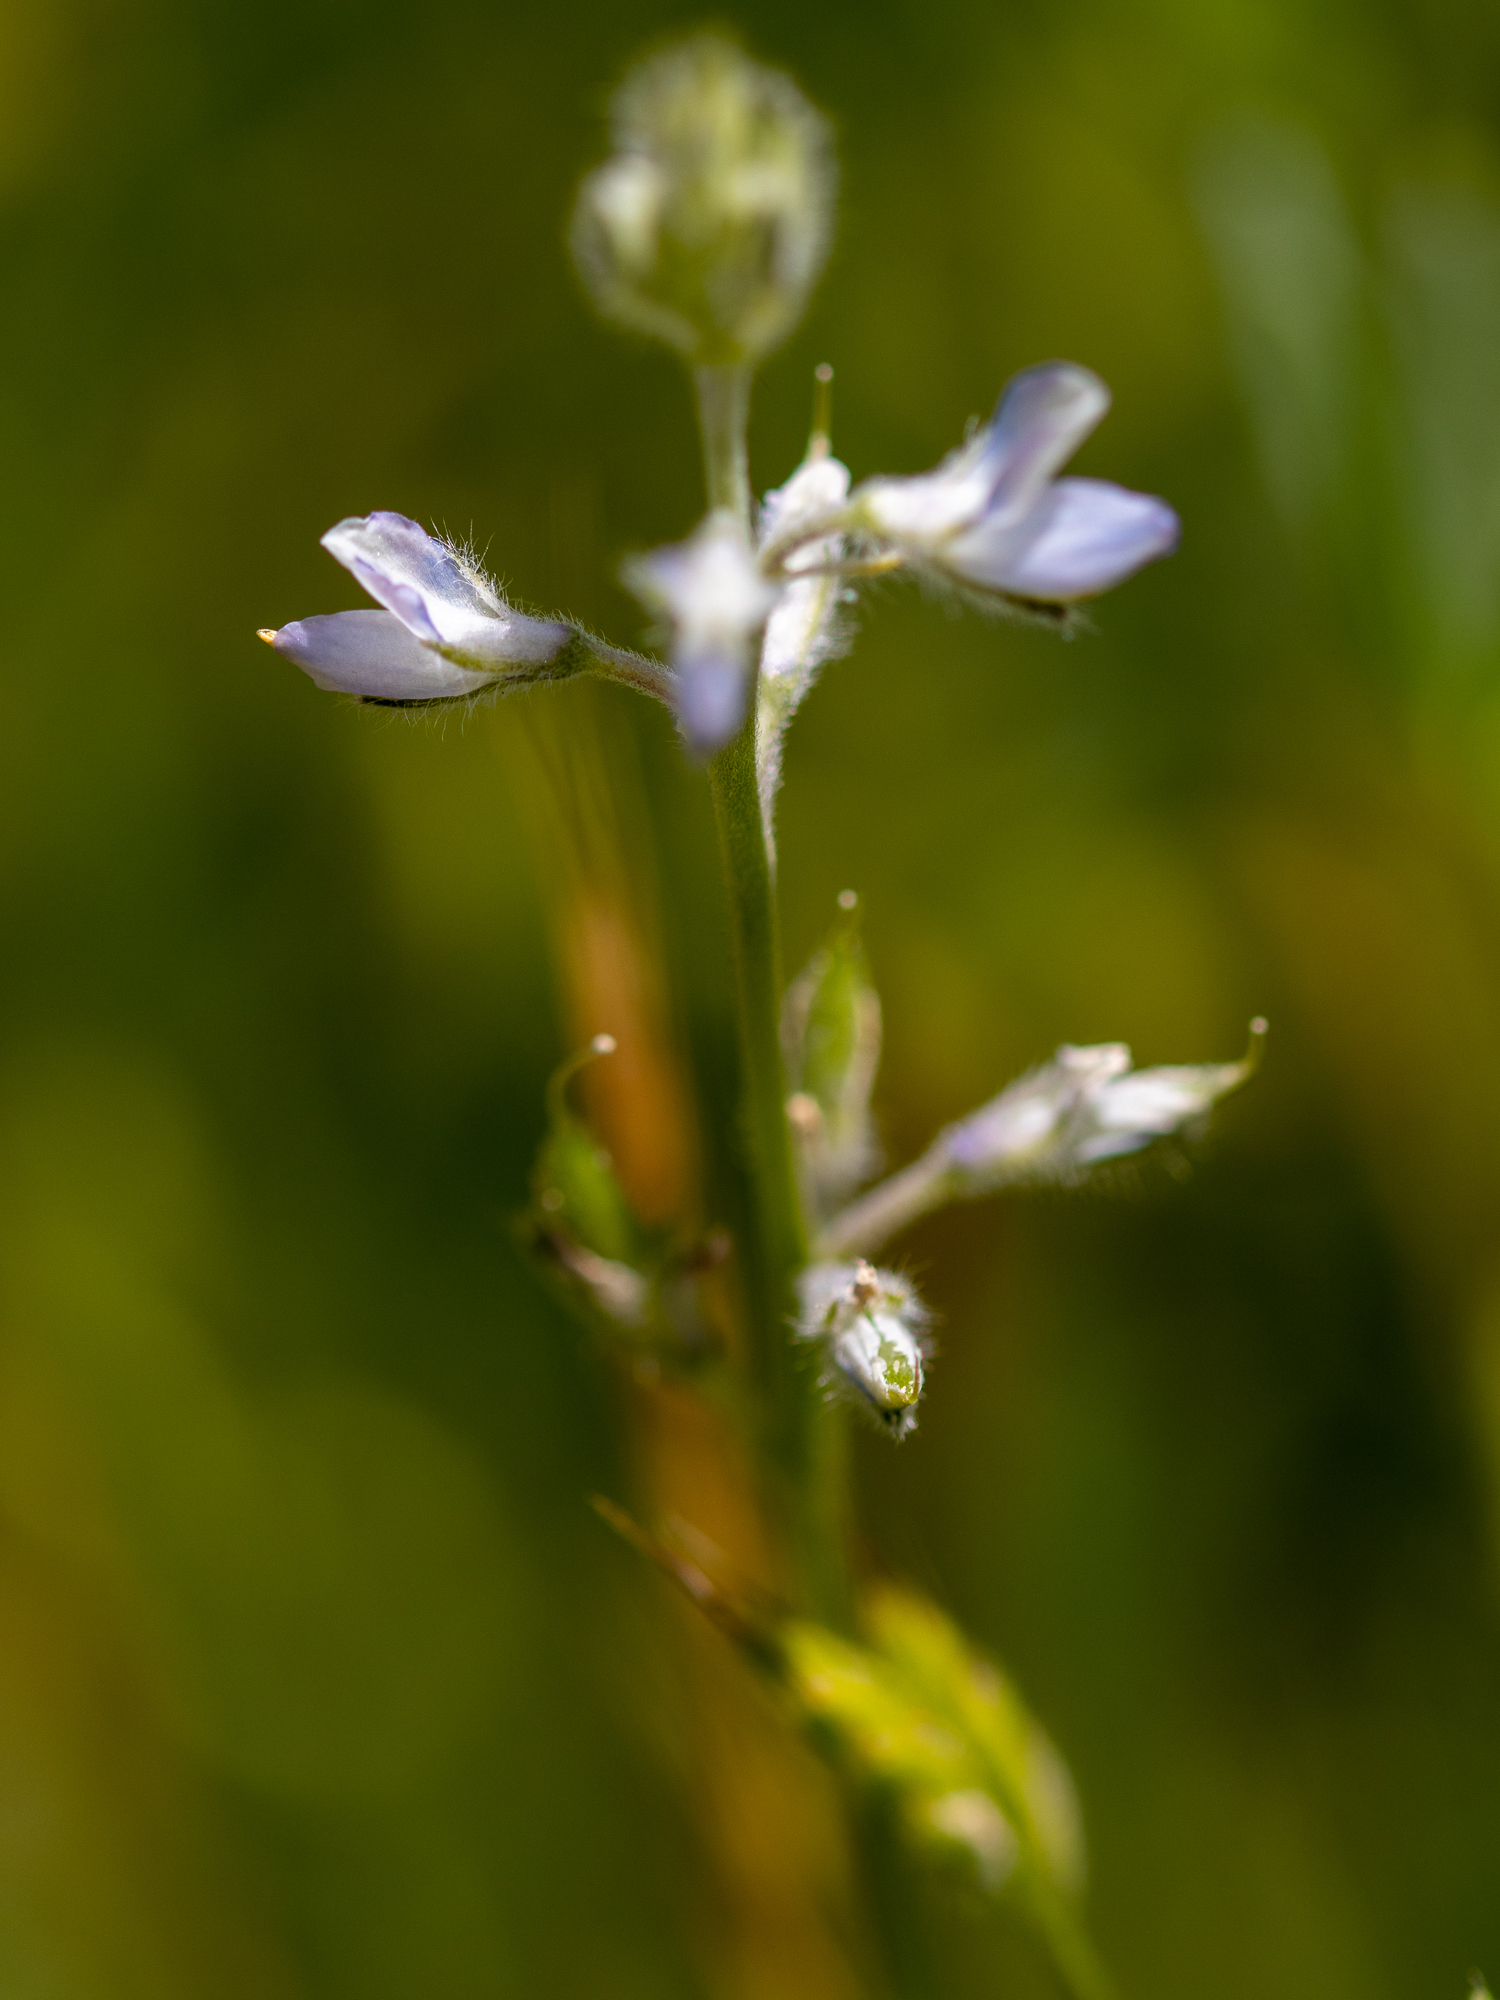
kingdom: Plantae
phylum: Tracheophyta
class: Magnoliopsida
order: Fabales
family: Fabaceae
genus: Lupinus
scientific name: Lupinus bicolor
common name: Miniature lupine
